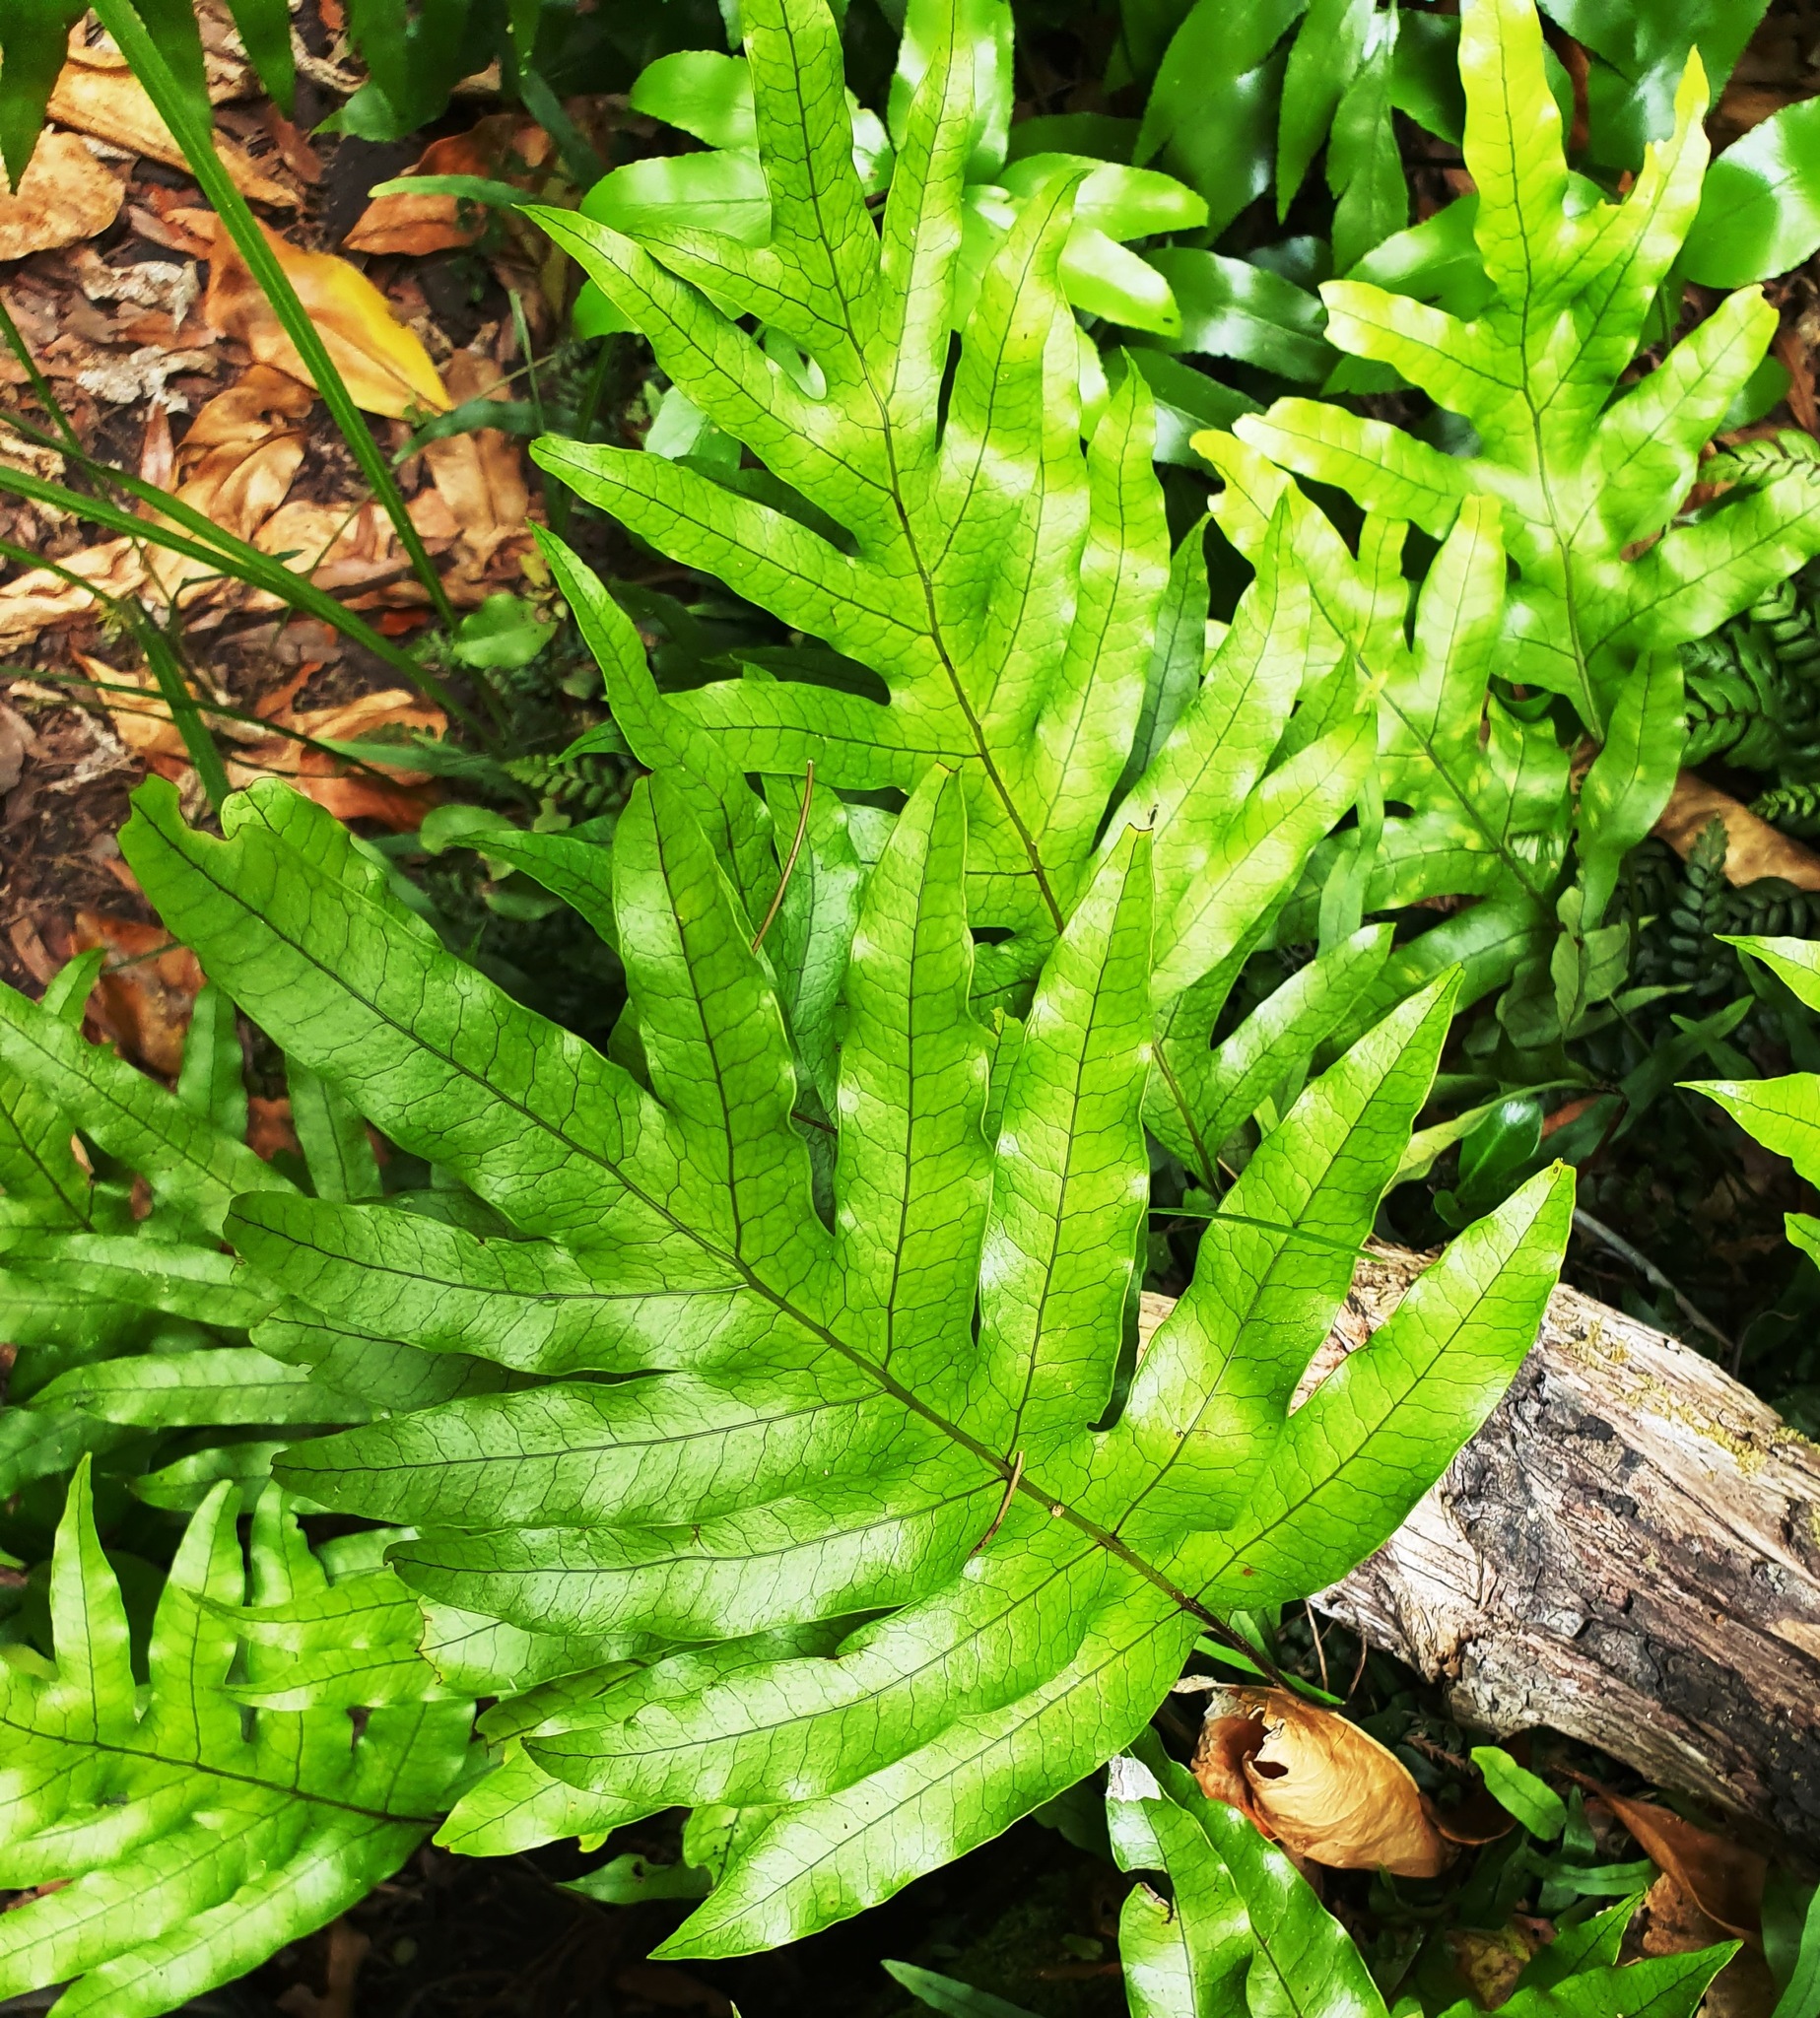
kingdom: Plantae
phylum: Tracheophyta
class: Polypodiopsida
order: Polypodiales
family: Polypodiaceae
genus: Lecanopteris
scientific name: Lecanopteris pustulata
